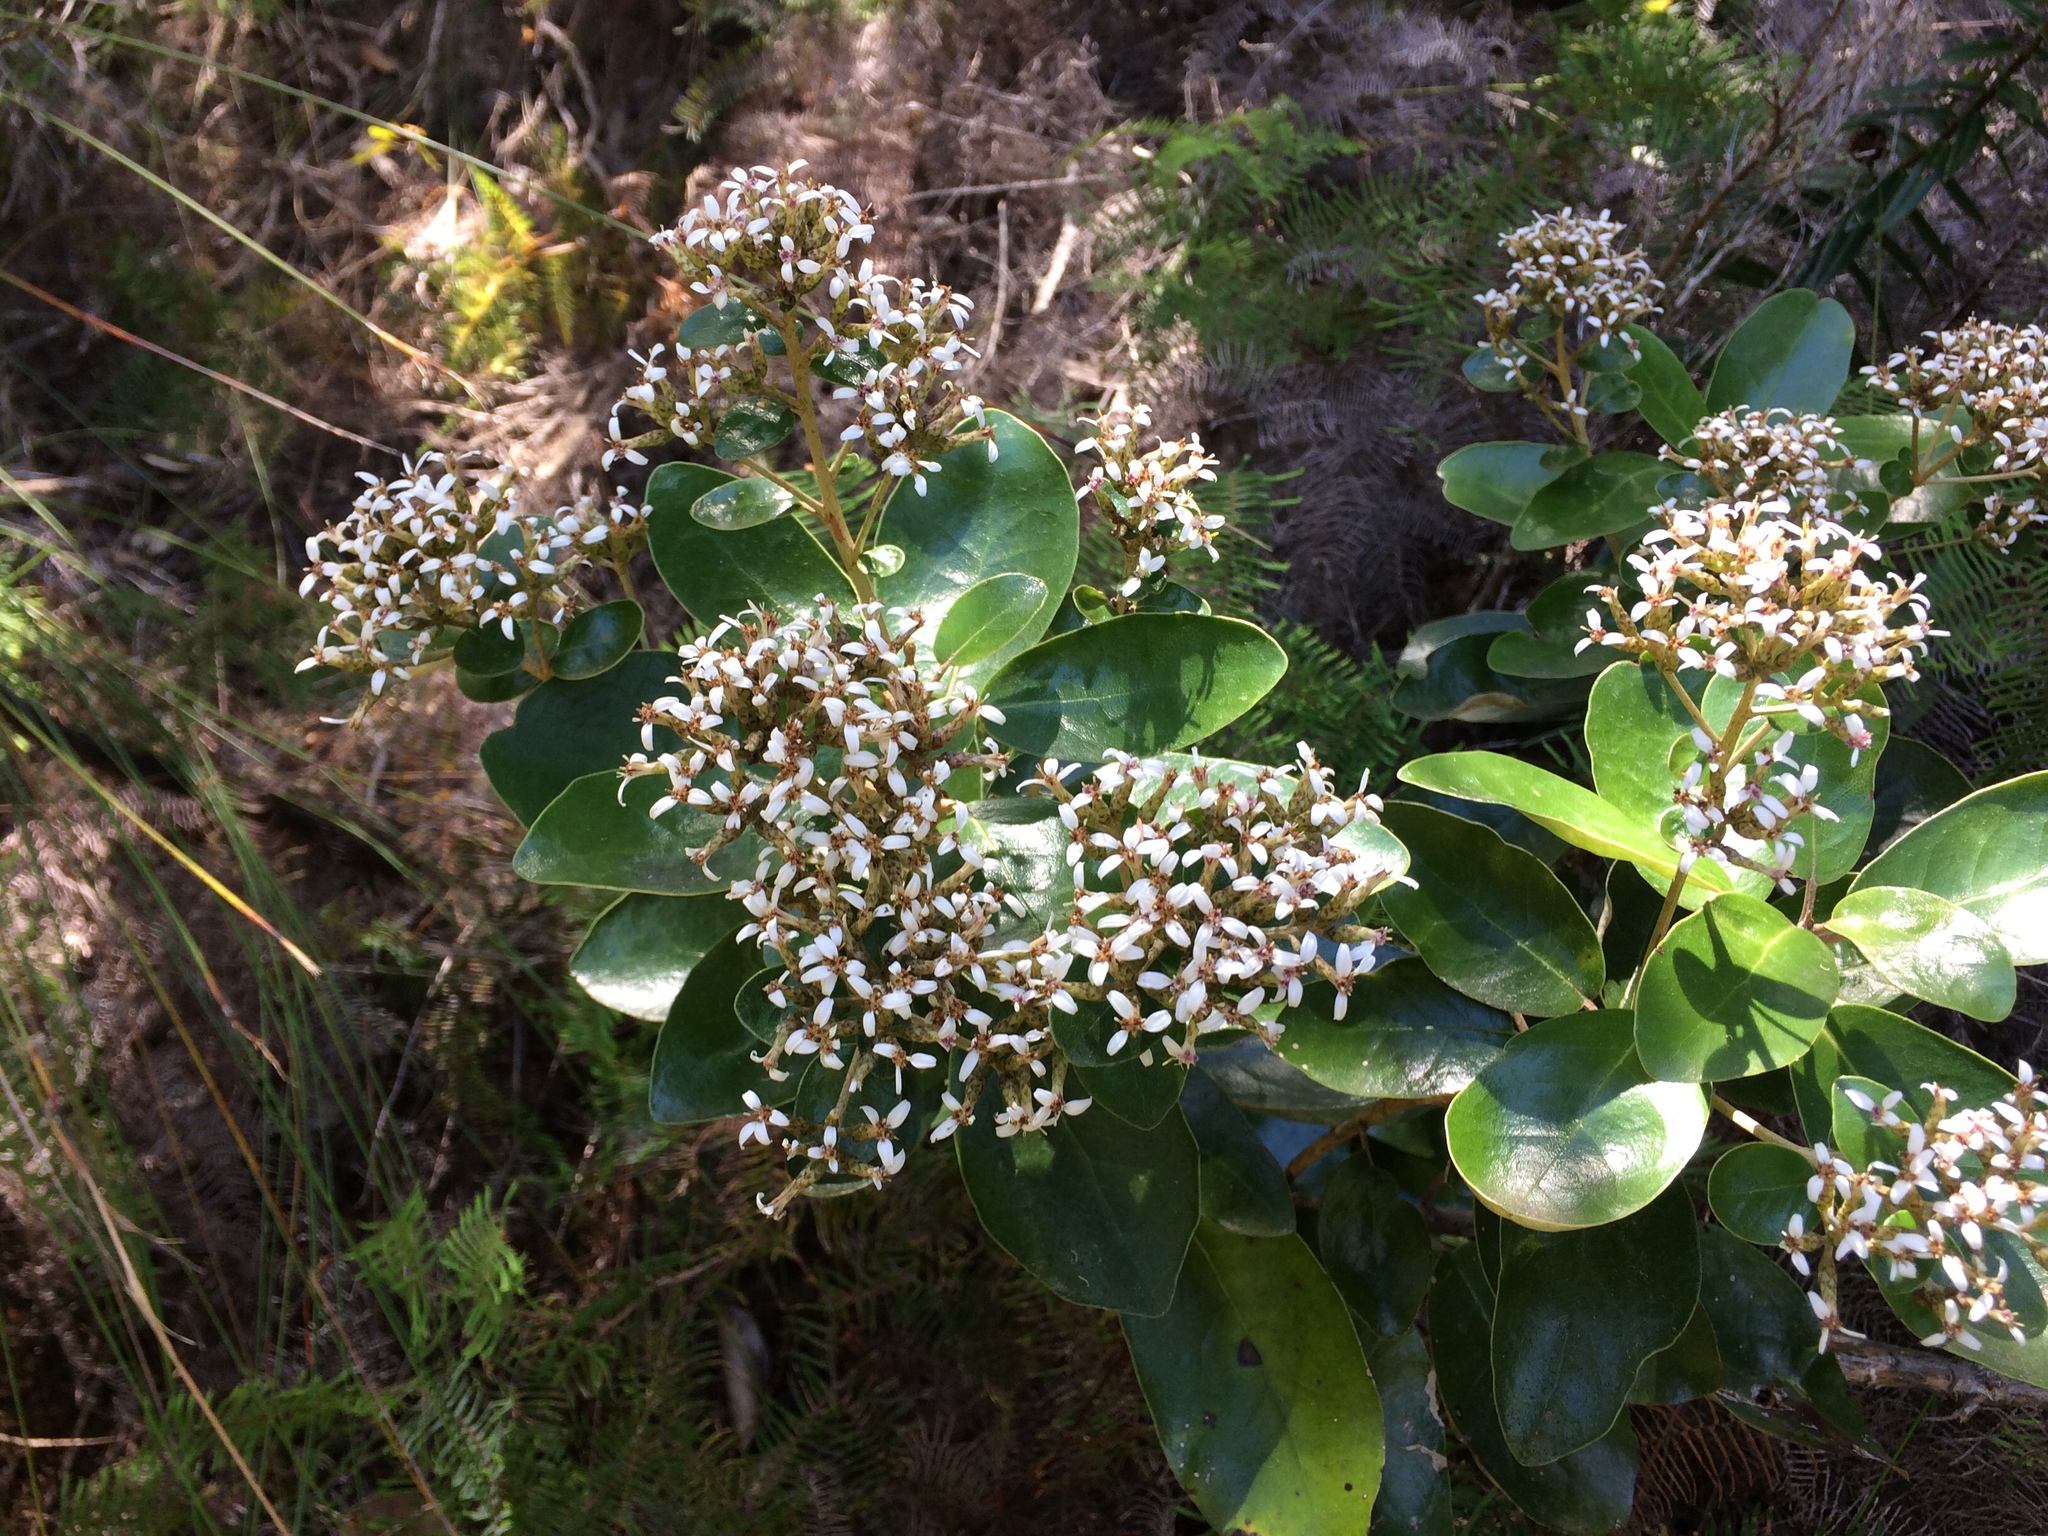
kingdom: Plantae
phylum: Tracheophyta
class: Magnoliopsida
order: Asterales
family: Asteraceae
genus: Olearia
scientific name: Olearia townsonii
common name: Coromandel tree daisy
